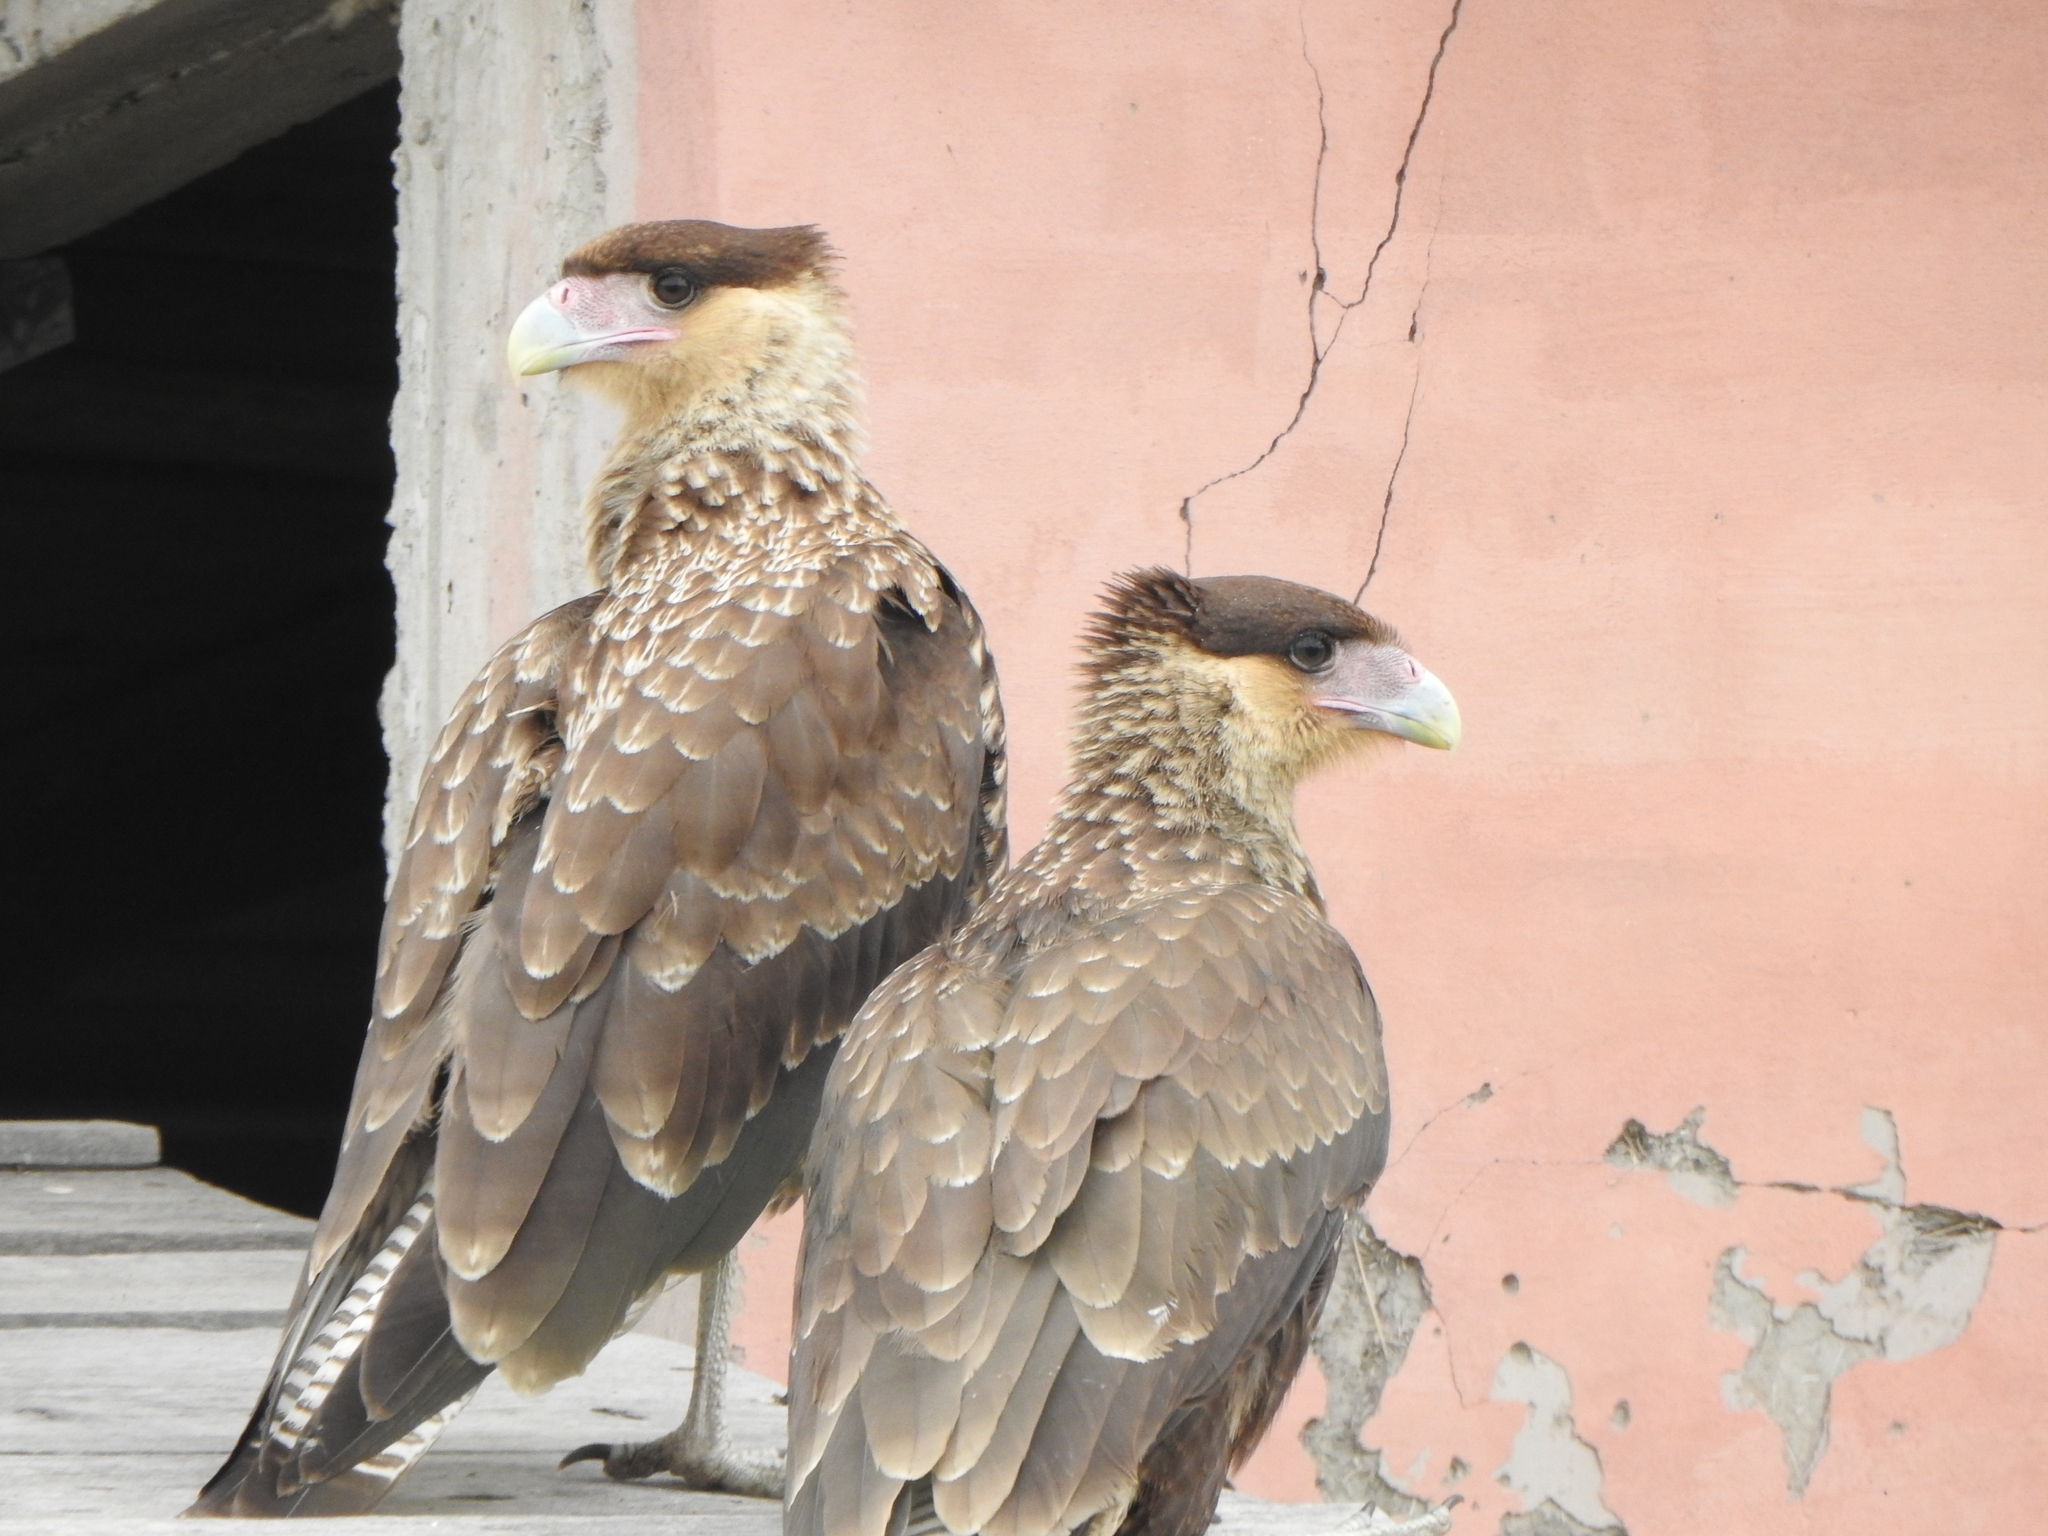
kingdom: Animalia
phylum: Chordata
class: Aves
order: Falconiformes
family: Falconidae
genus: Caracara
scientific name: Caracara plancus
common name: Southern caracara
